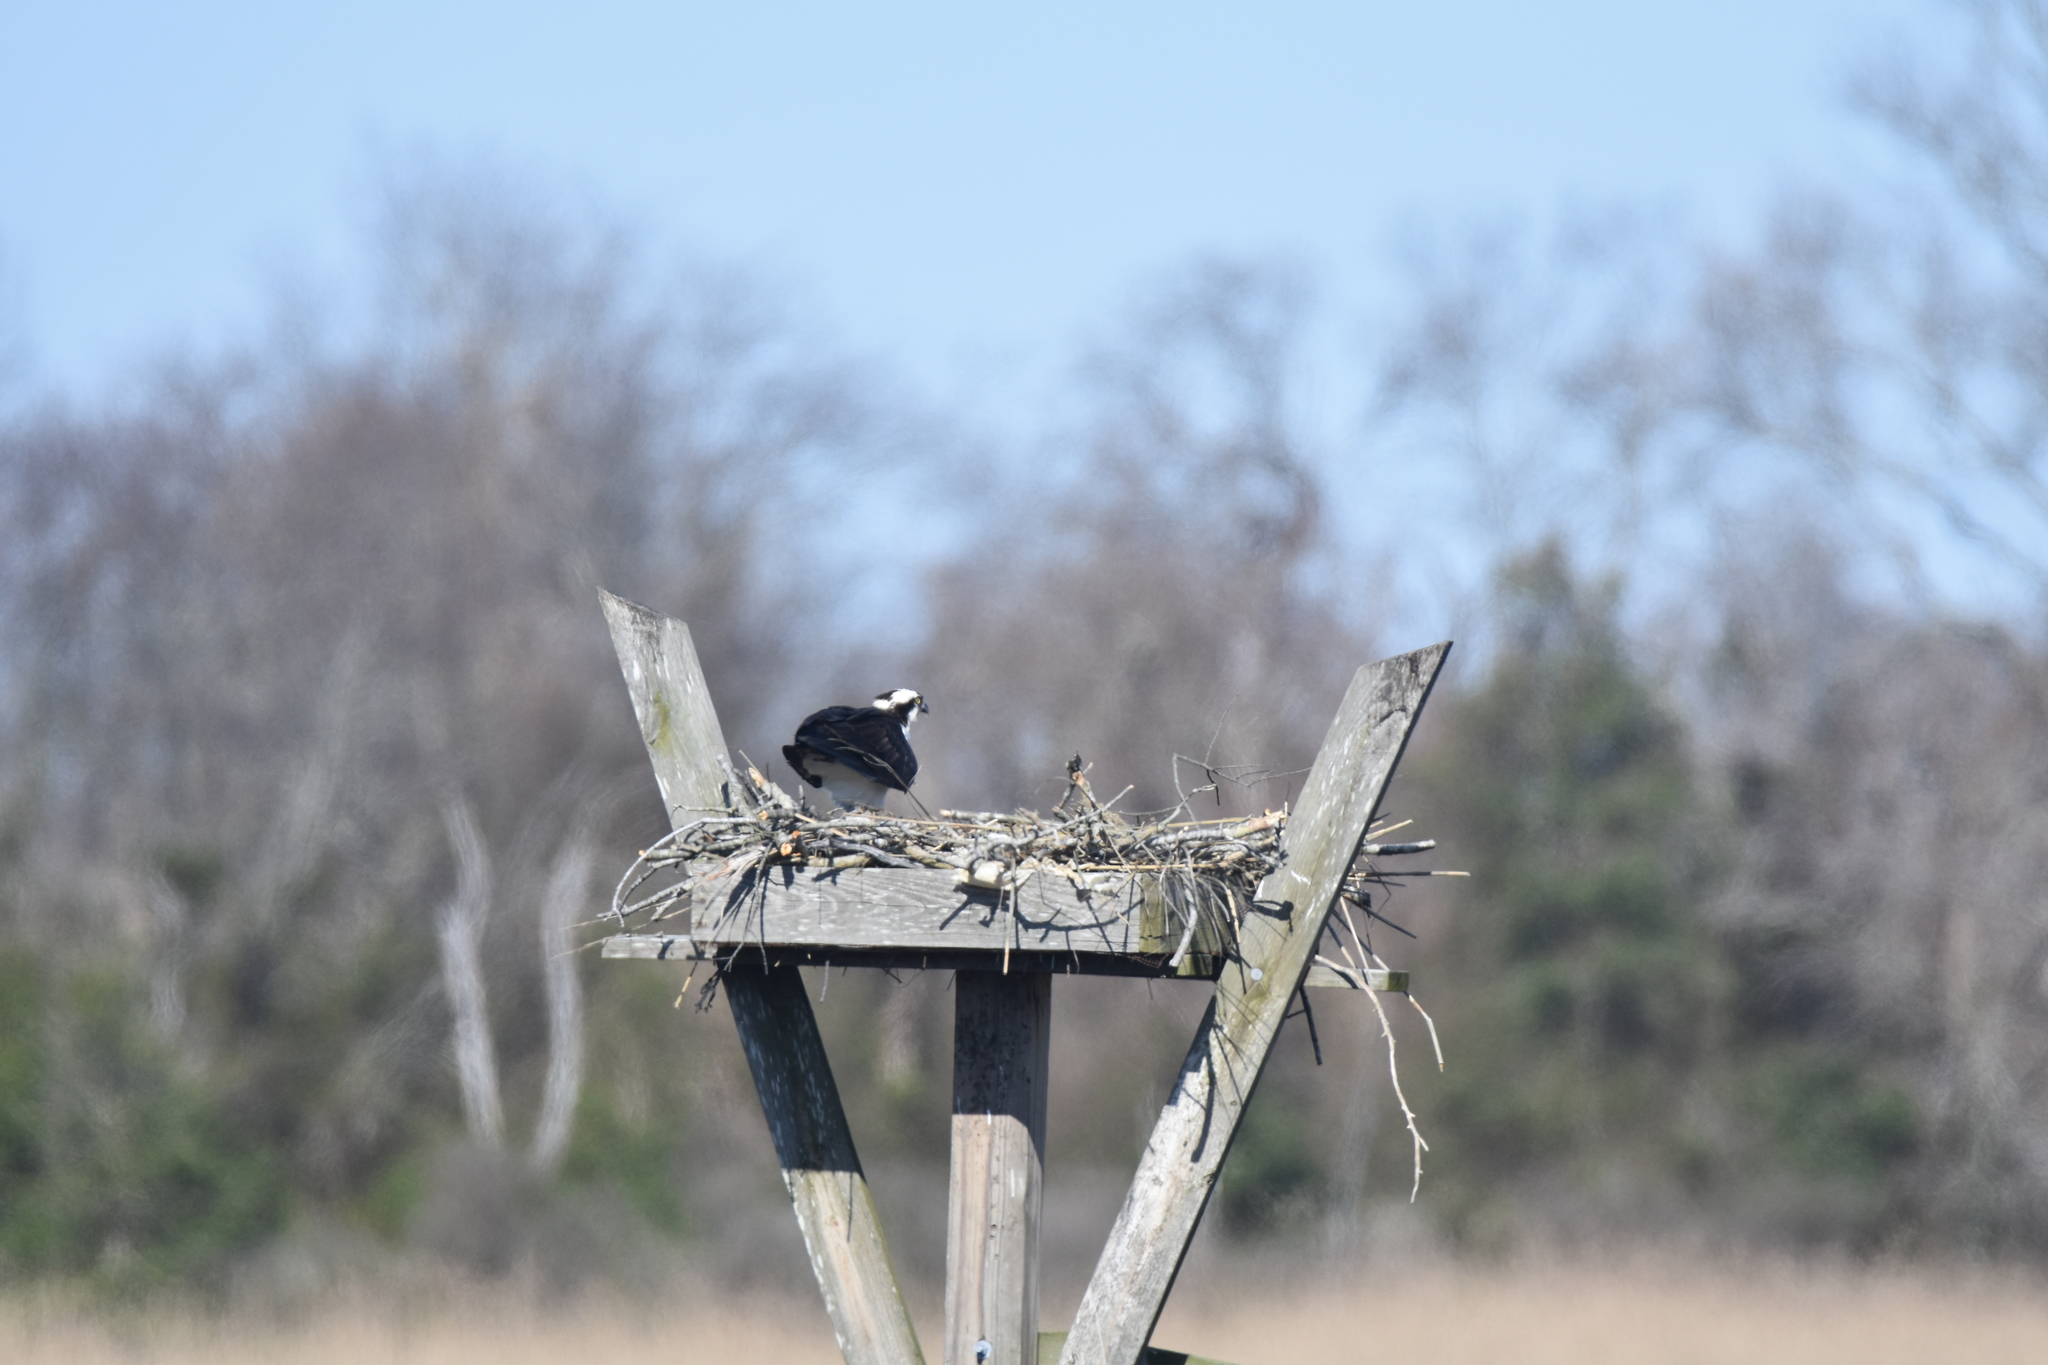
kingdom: Animalia
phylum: Chordata
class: Aves
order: Accipitriformes
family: Pandionidae
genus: Pandion
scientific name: Pandion haliaetus
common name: Osprey
